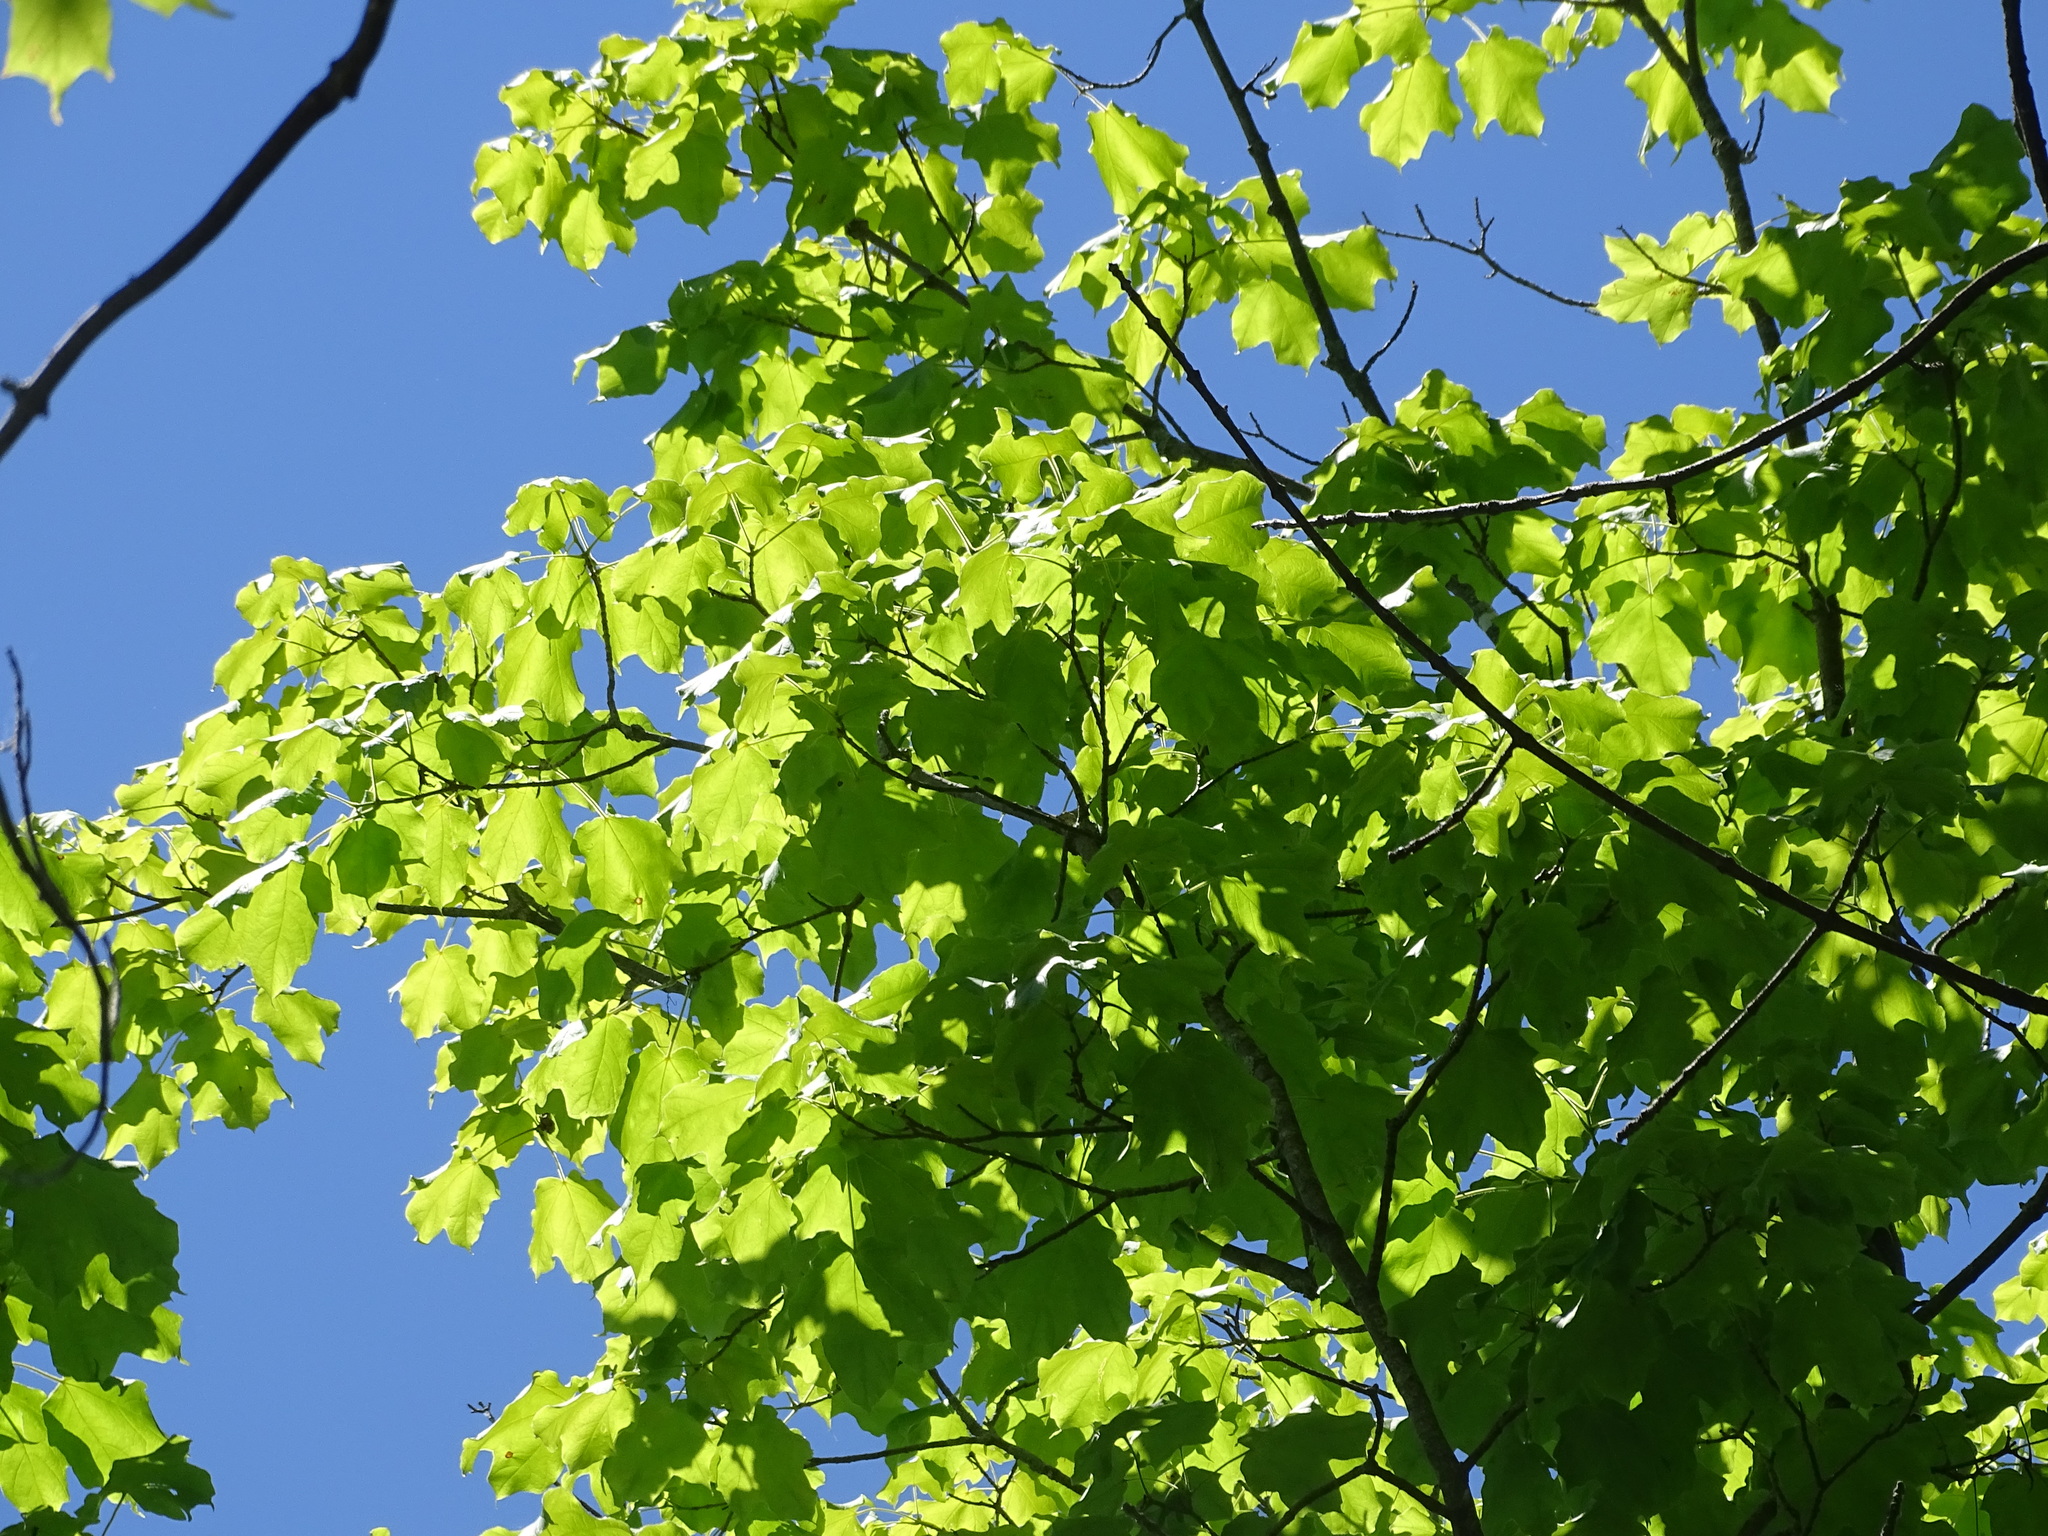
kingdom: Plantae
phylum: Tracheophyta
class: Magnoliopsida
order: Sapindales
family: Sapindaceae
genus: Acer
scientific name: Acer nigrum
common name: Black maple
